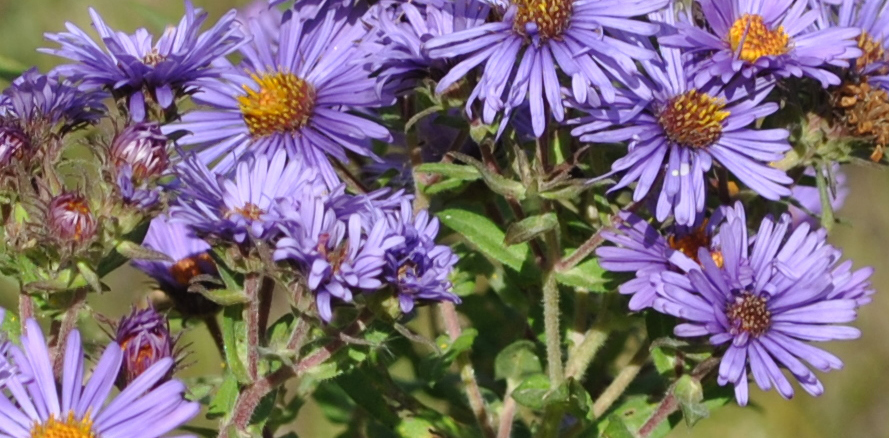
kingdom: Plantae
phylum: Tracheophyta
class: Magnoliopsida
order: Asterales
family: Asteraceae
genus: Symphyotrichum
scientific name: Symphyotrichum novae-angliae
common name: Michaelmas daisy
